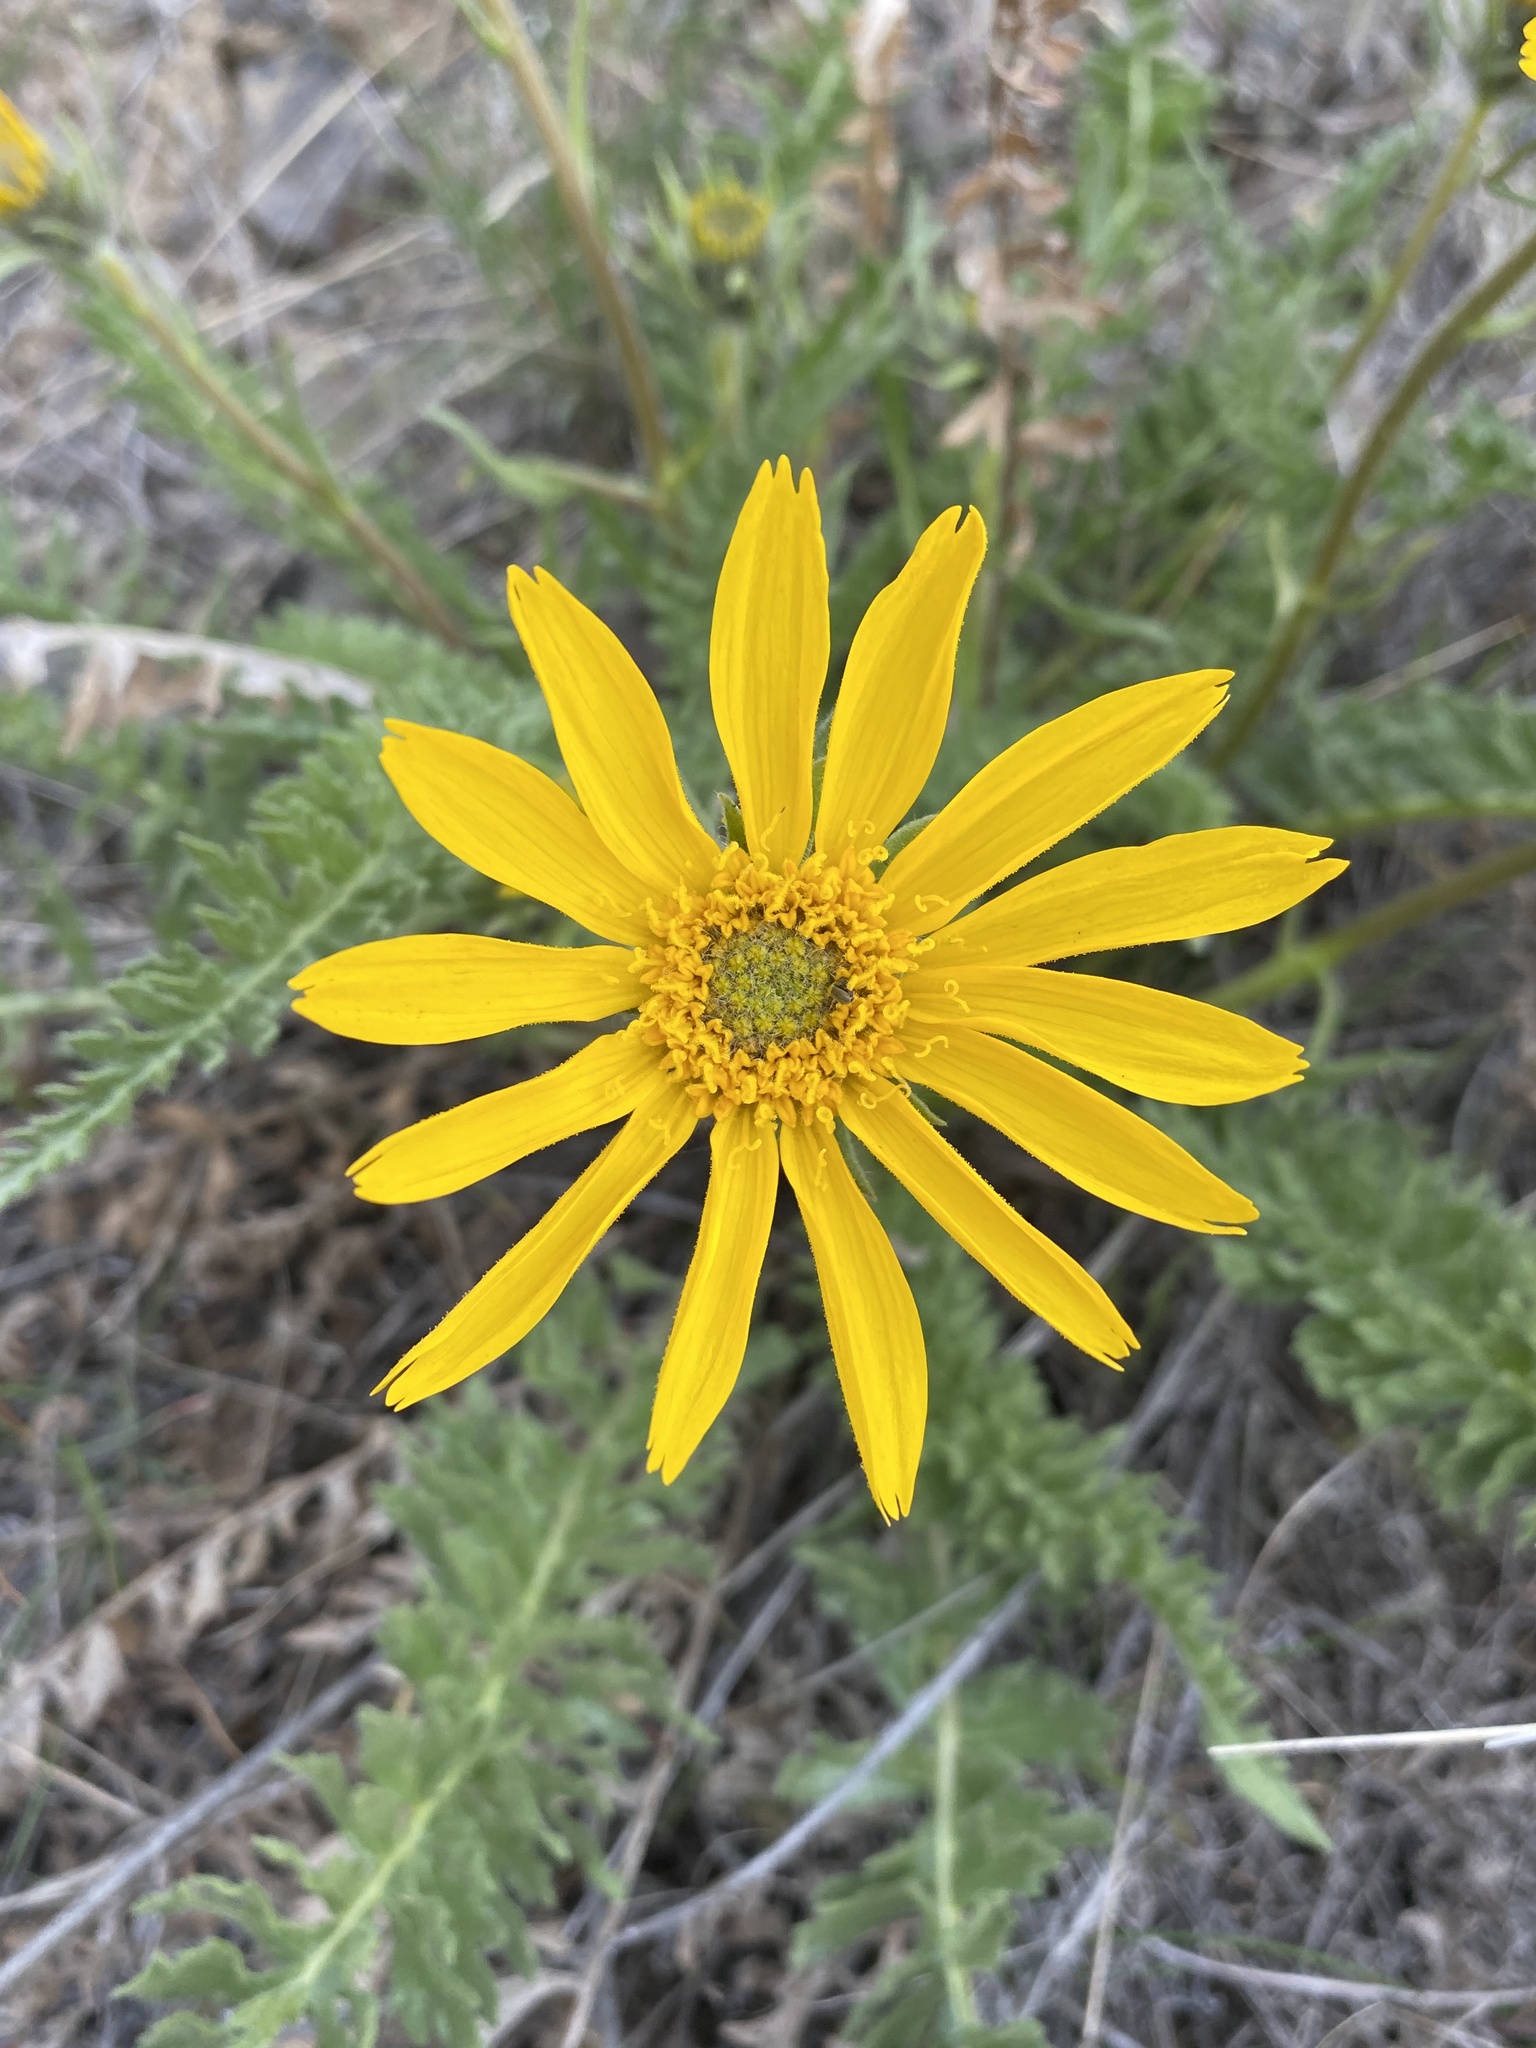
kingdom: Plantae
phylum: Tracheophyta
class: Magnoliopsida
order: Asterales
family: Asteraceae
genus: Balsamorhiza
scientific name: Balsamorhiza hookeri
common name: Hooker's balsamroot
